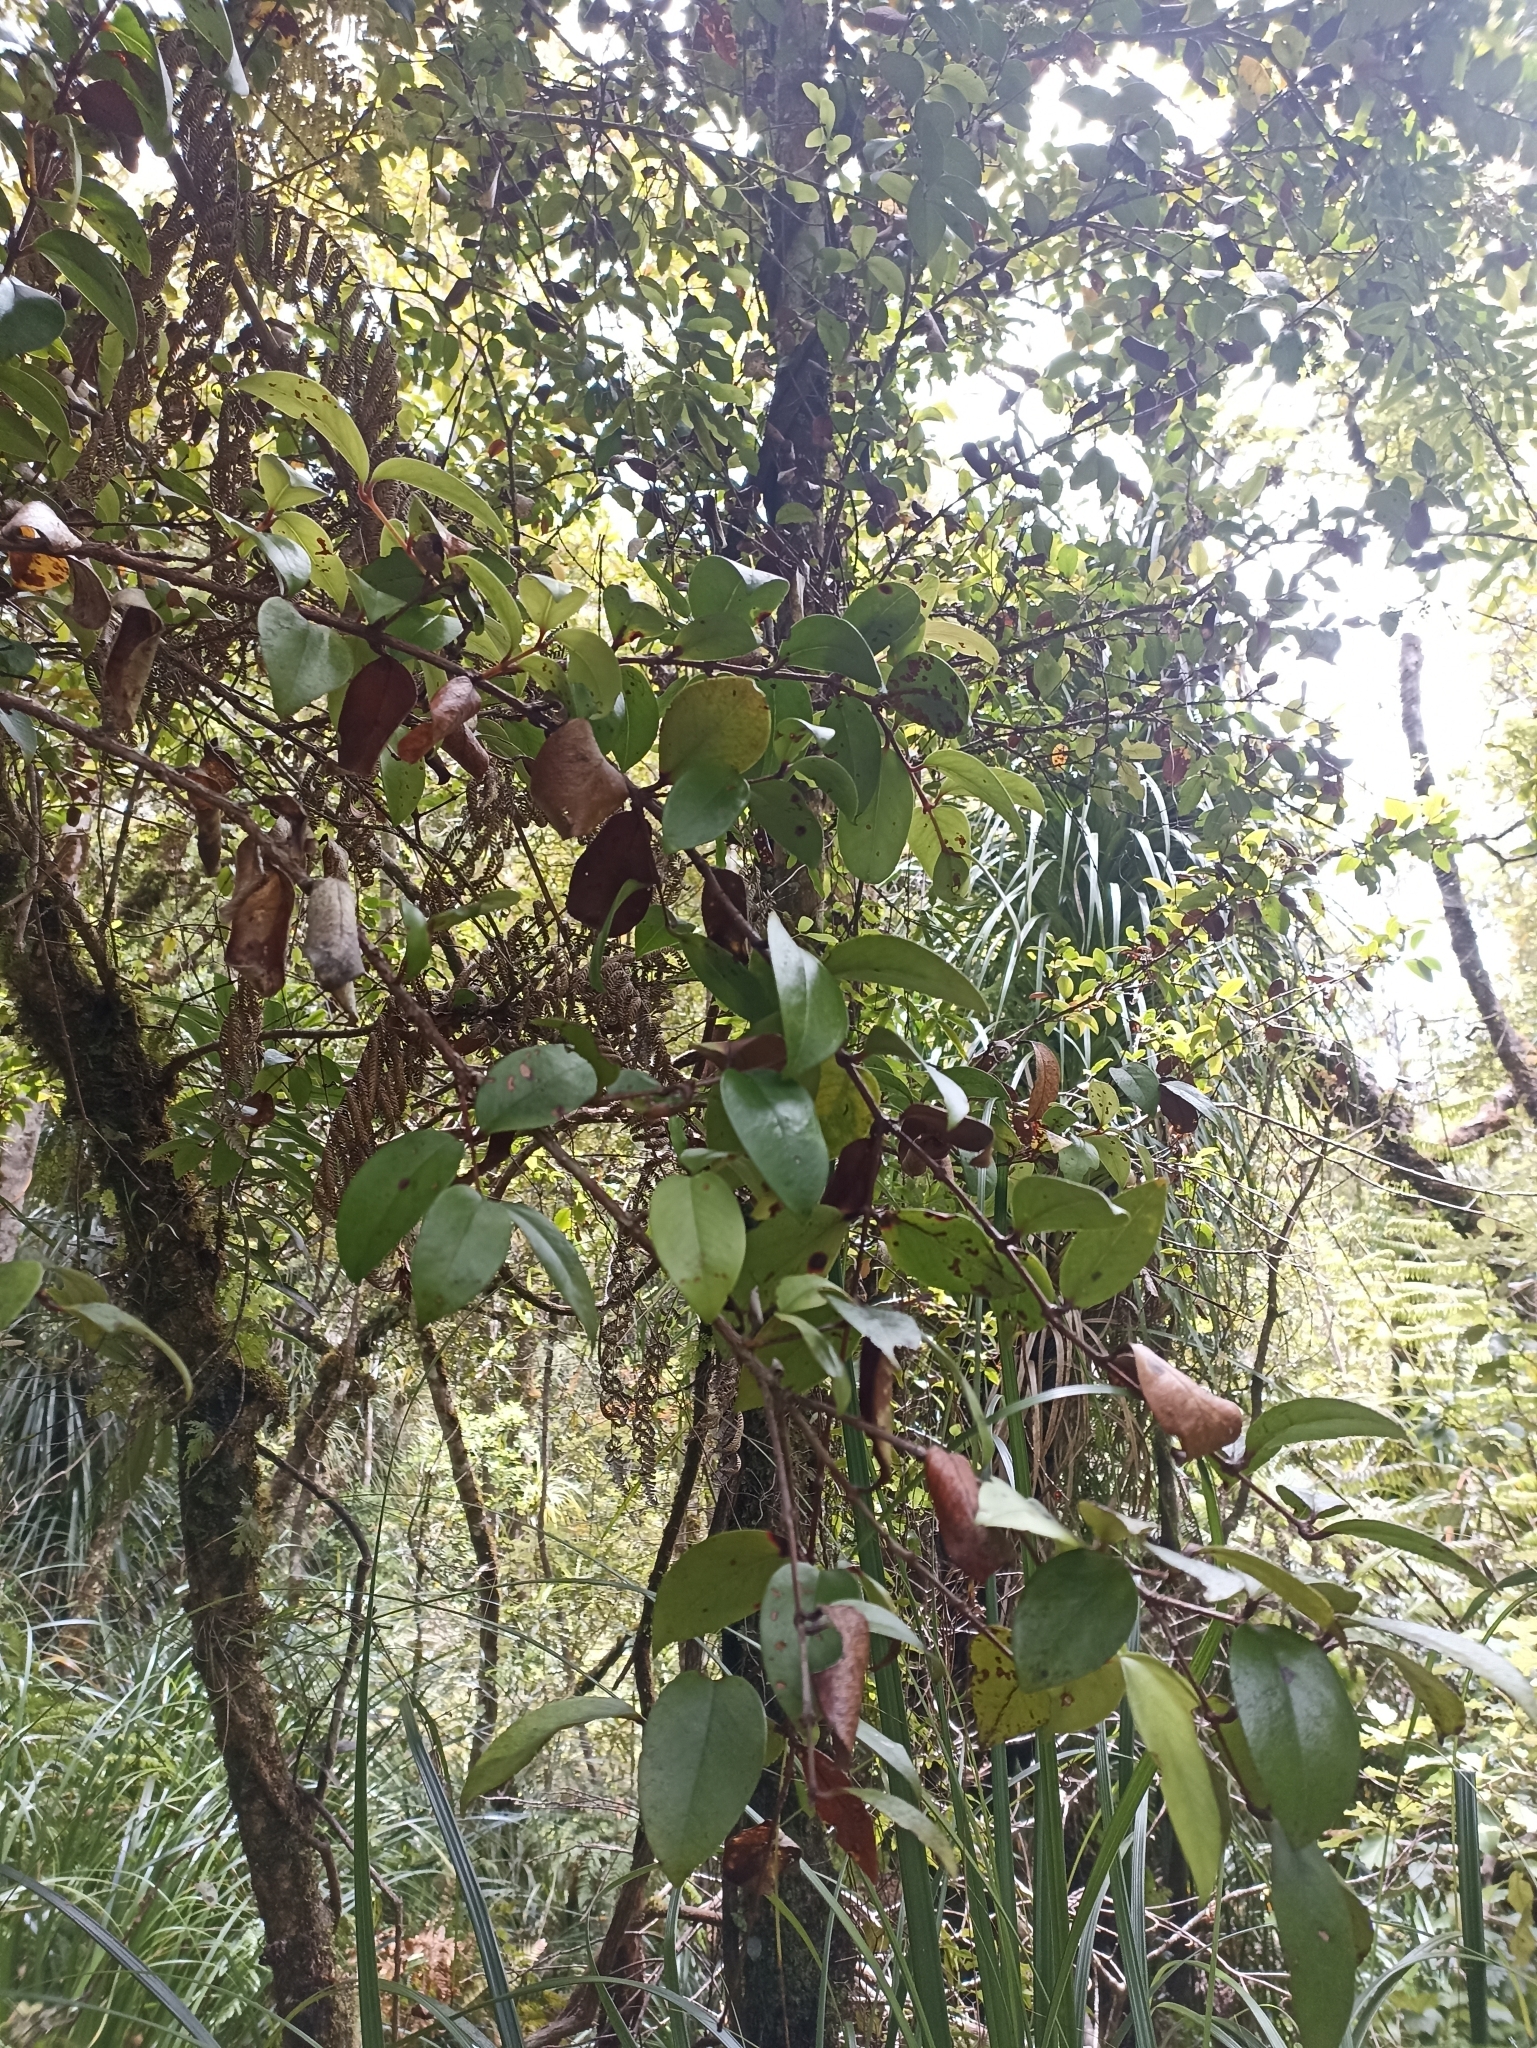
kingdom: Plantae
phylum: Tracheophyta
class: Magnoliopsida
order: Myrtales
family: Myrtaceae
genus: Metrosideros
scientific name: Metrosideros albiflora
